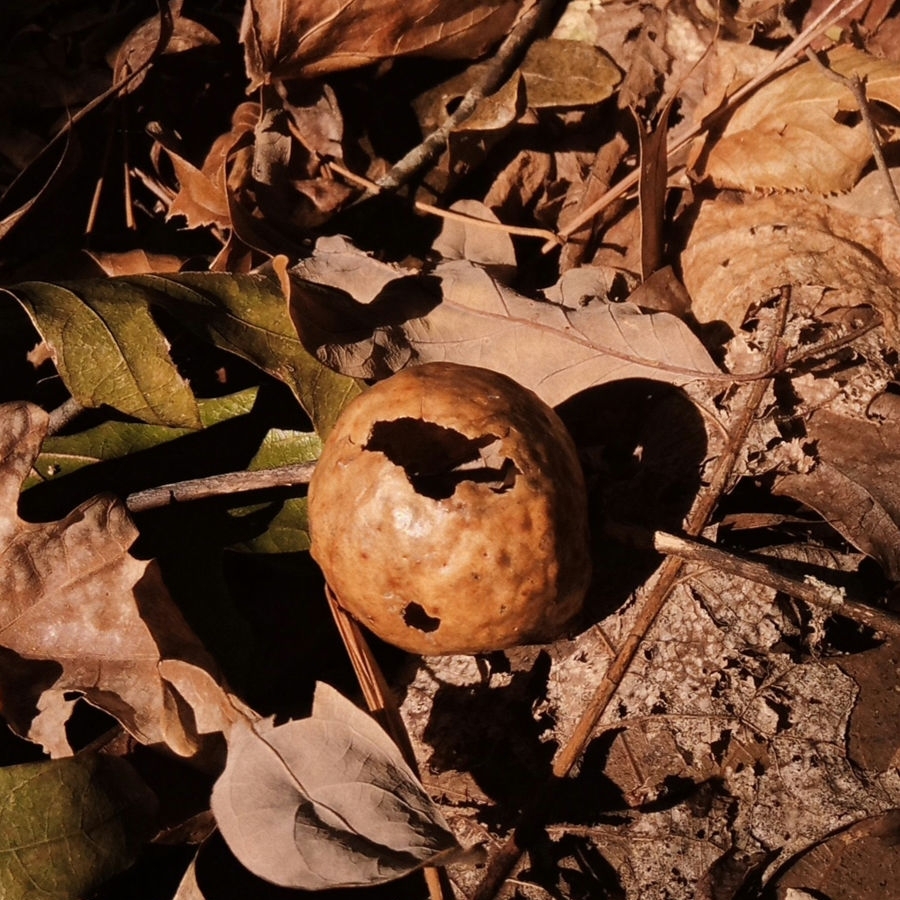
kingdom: Animalia
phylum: Arthropoda
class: Insecta
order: Hymenoptera
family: Cynipidae
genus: Amphibolips
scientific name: Amphibolips
